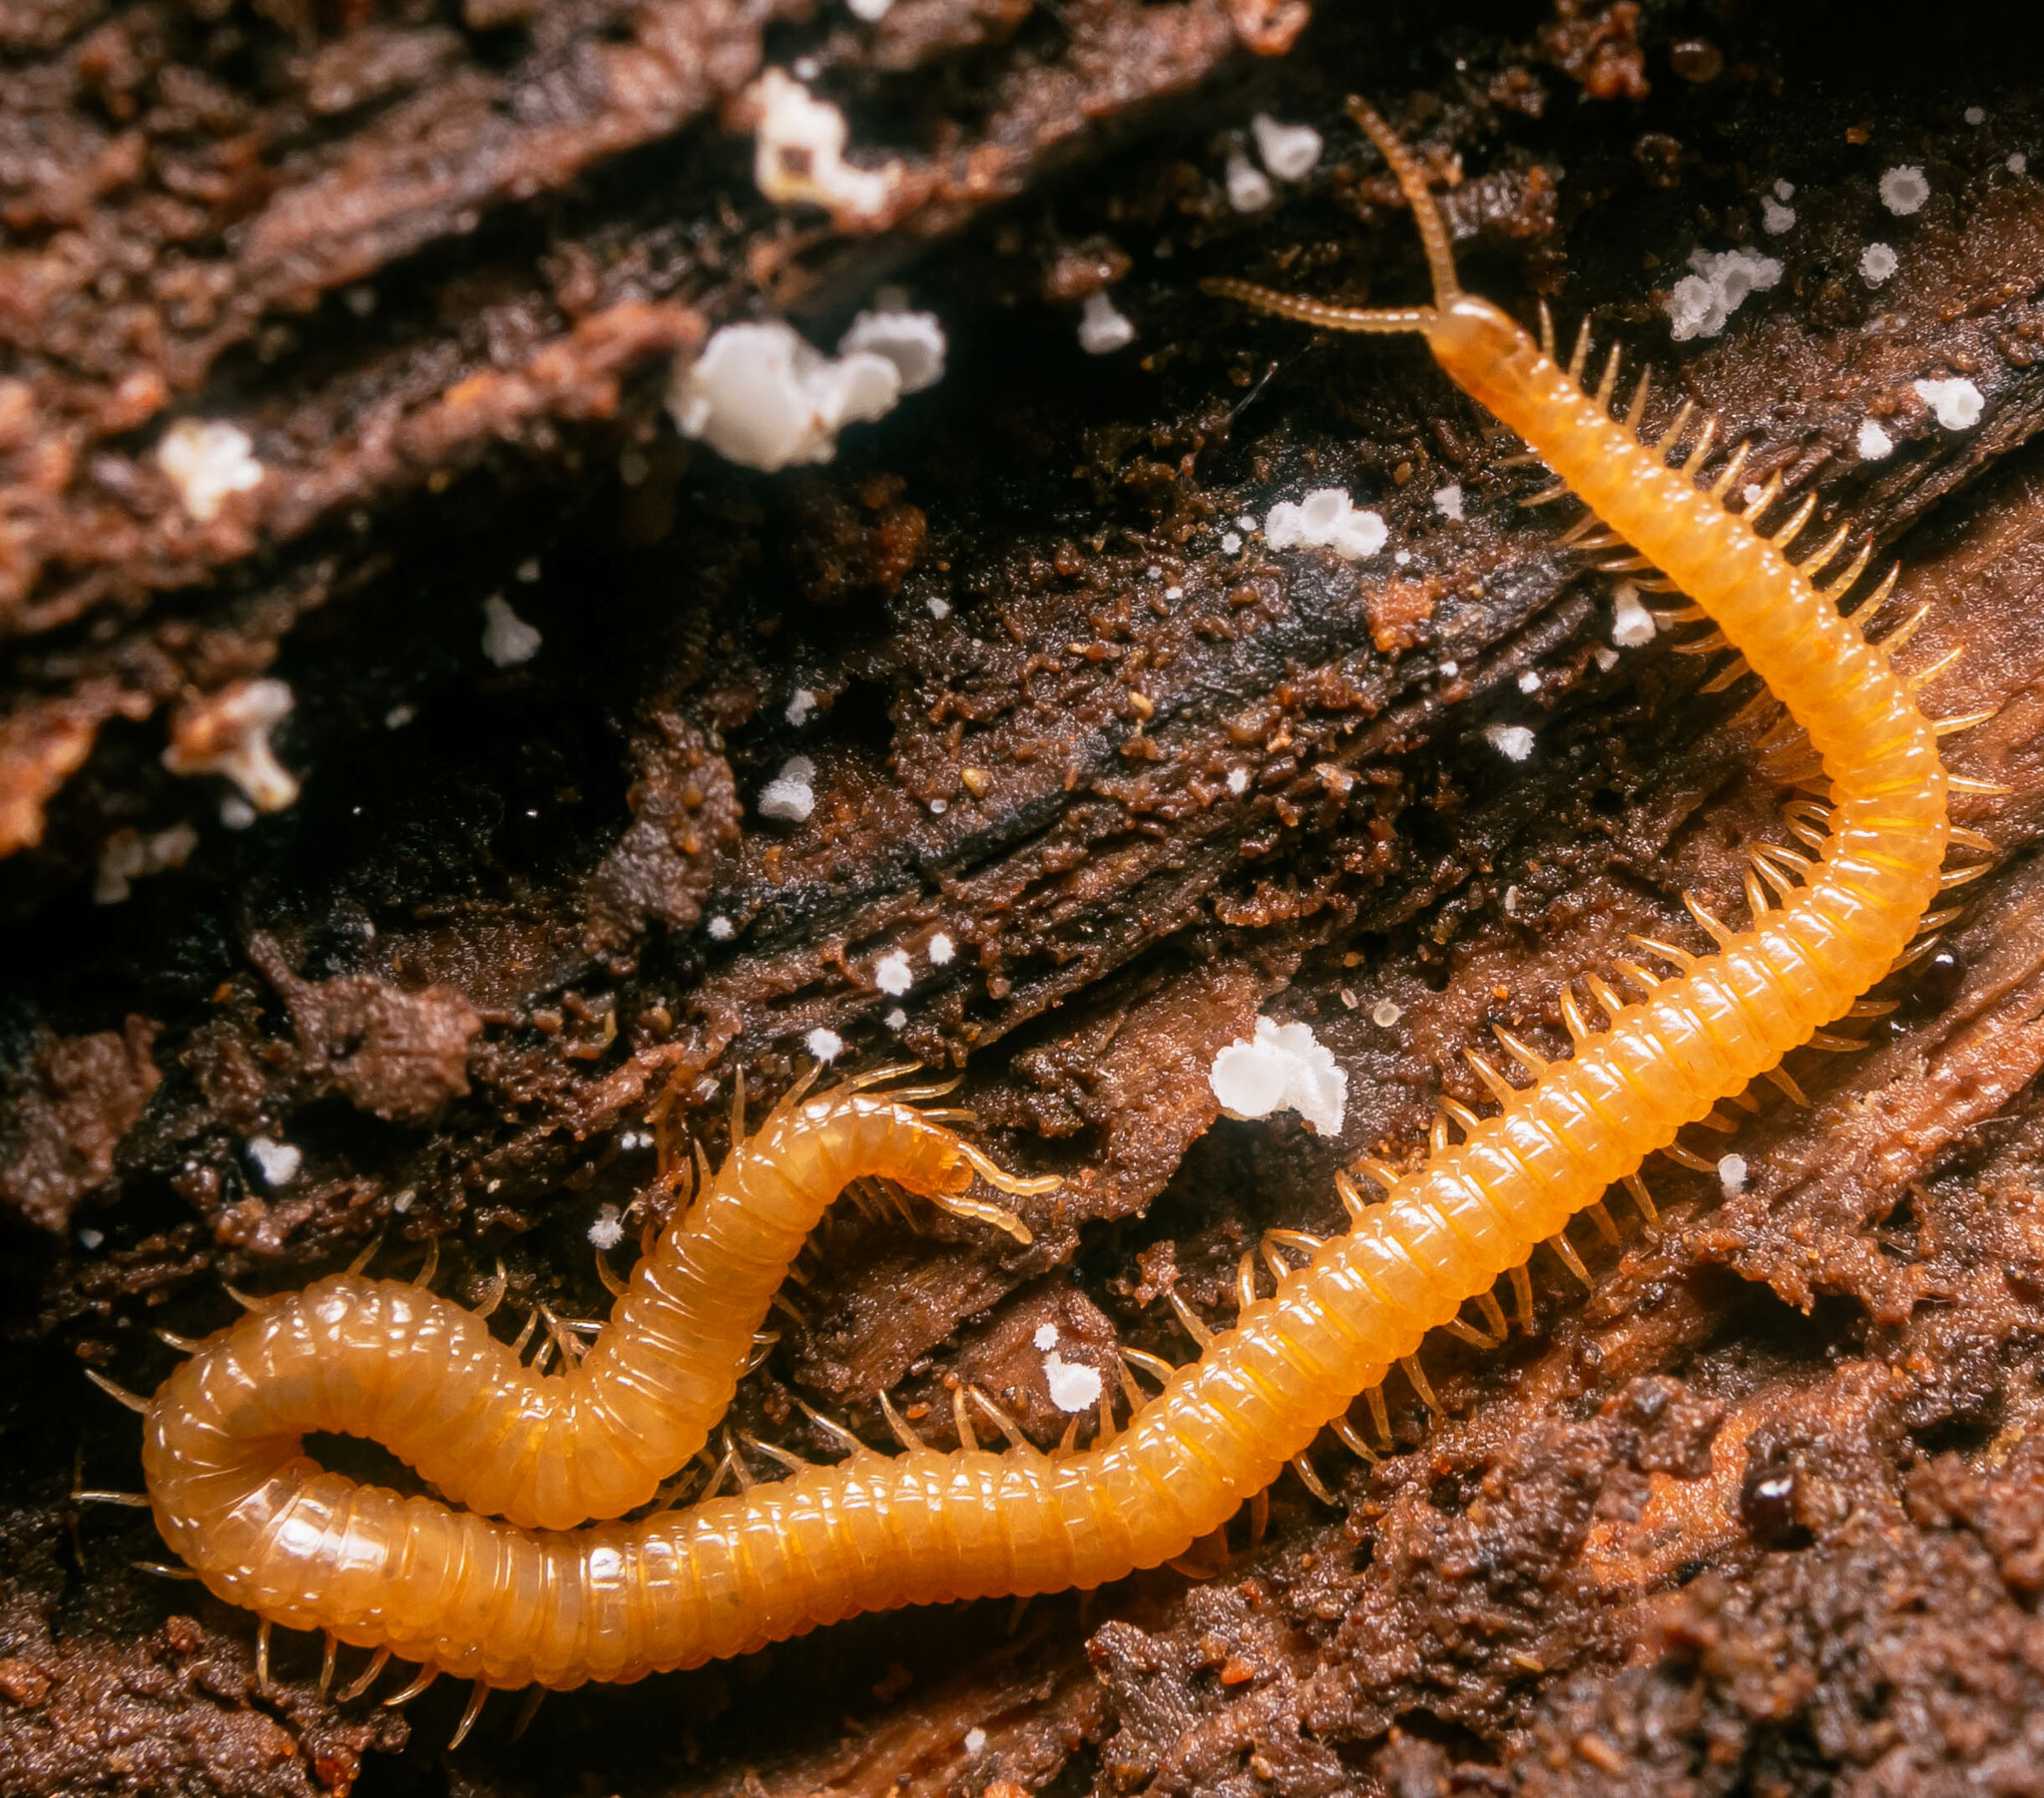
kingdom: Animalia
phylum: Arthropoda
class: Chilopoda
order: Geophilomorpha
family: Himantariidae
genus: Stigmatogaster
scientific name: Stigmatogaster subterranea
